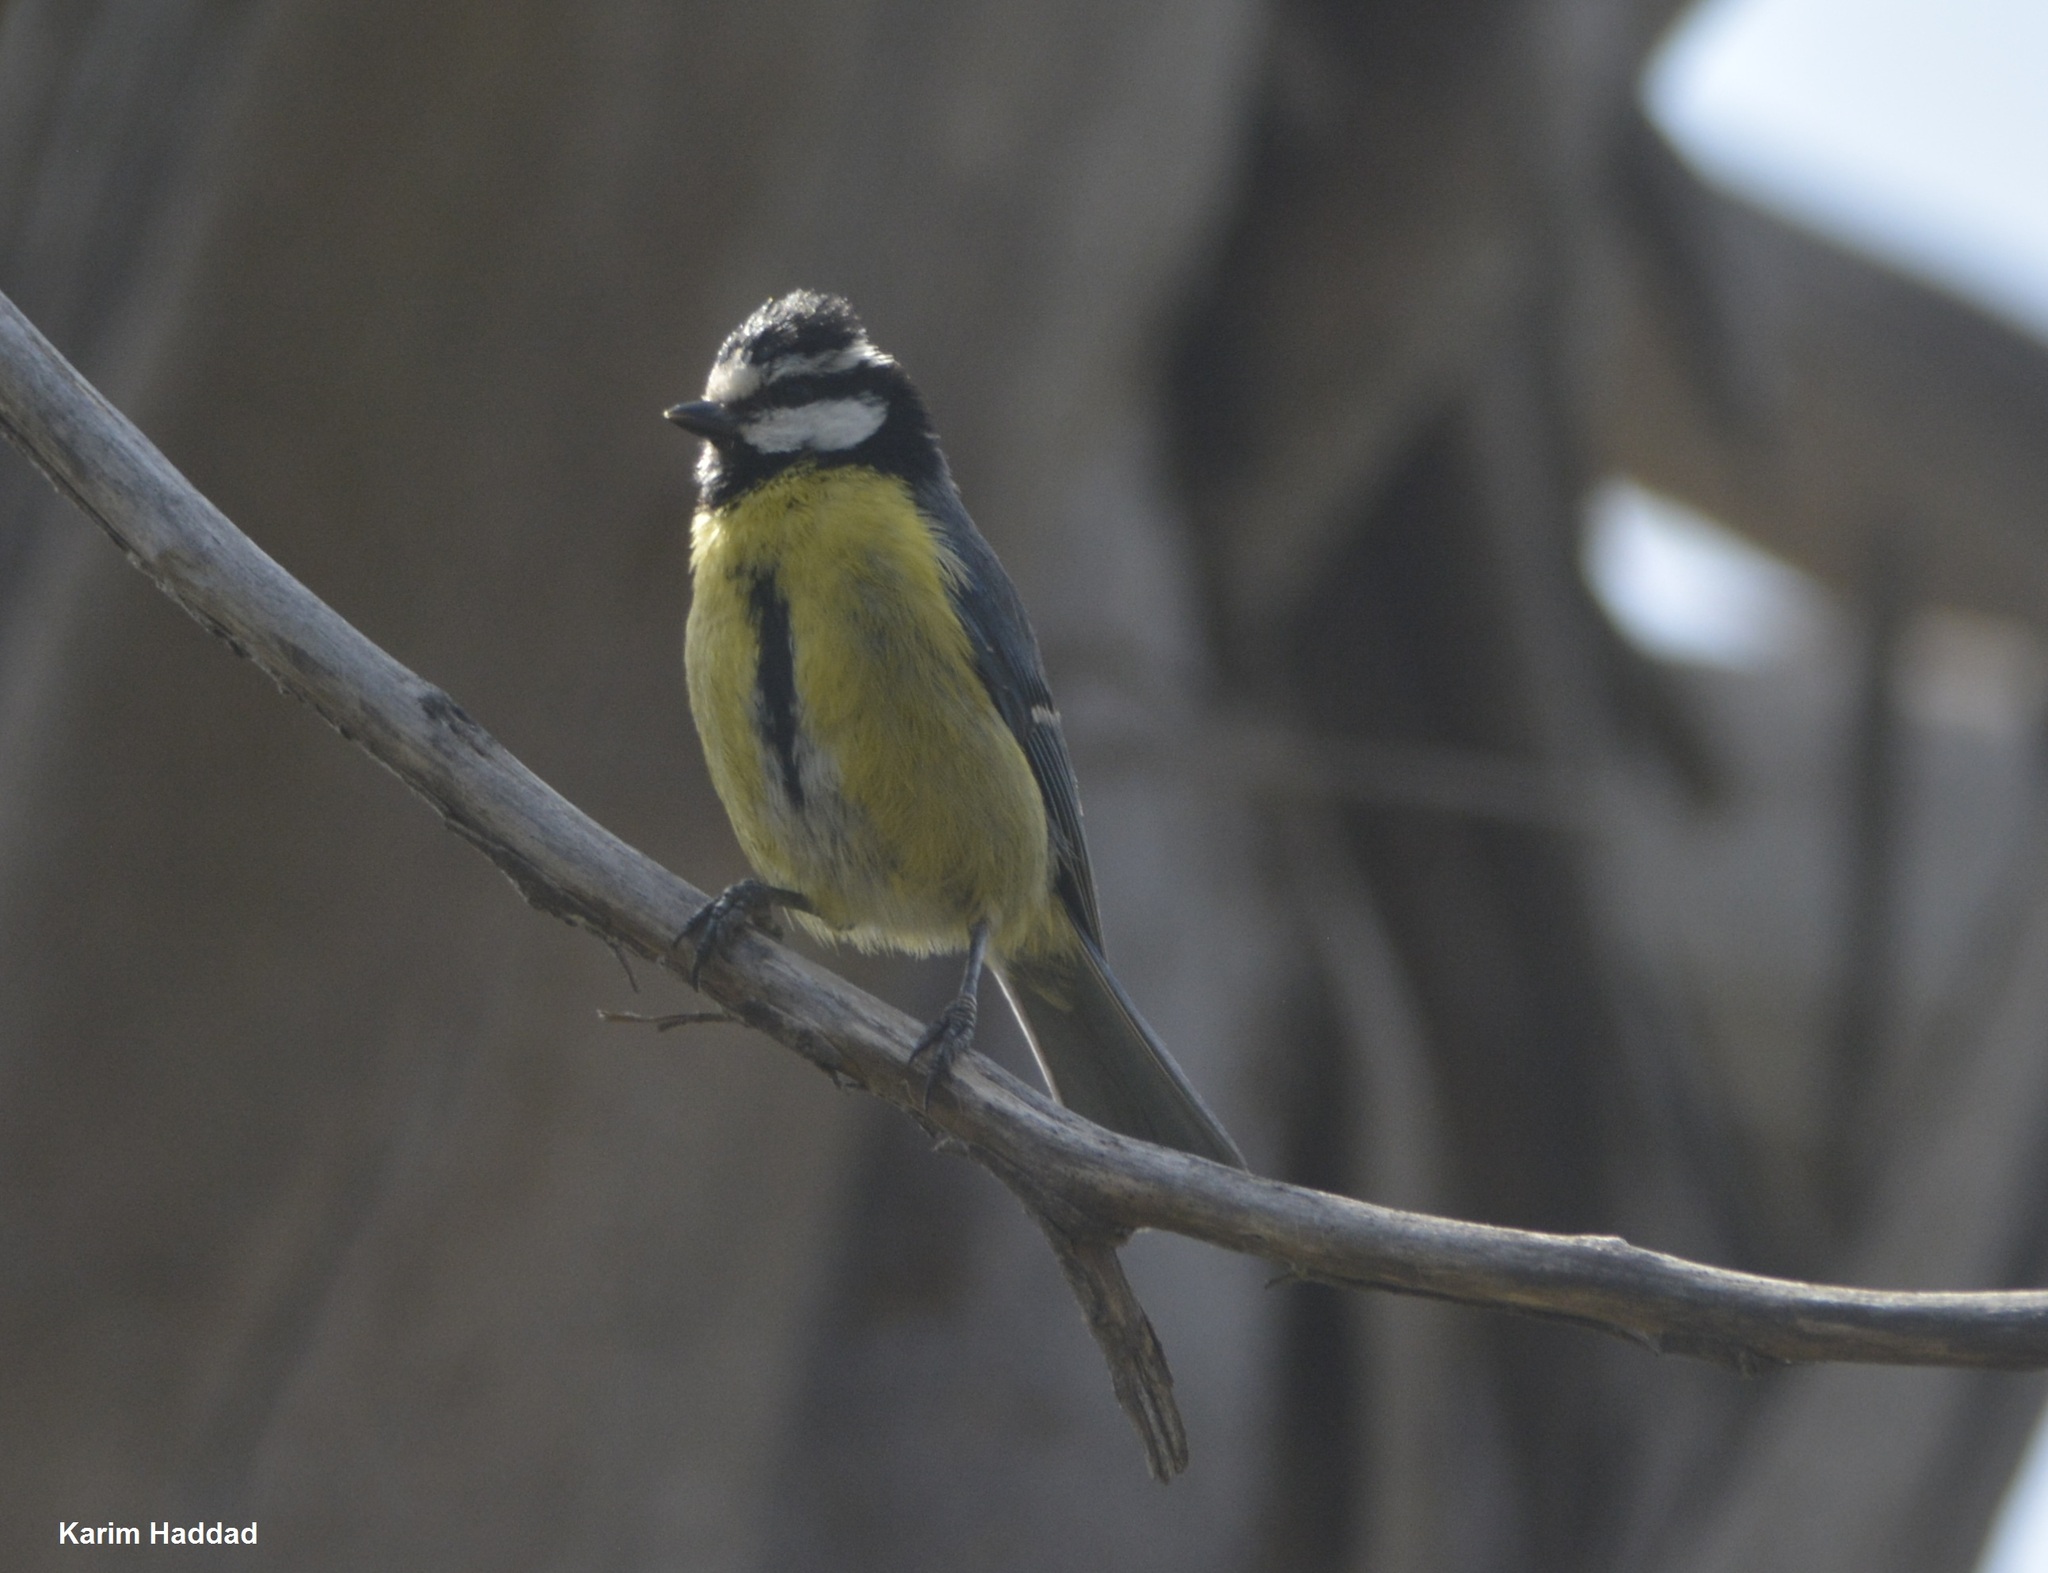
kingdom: Animalia
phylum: Chordata
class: Aves
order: Passeriformes
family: Paridae
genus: Cyanistes
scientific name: Cyanistes teneriffae
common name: African blue tit
